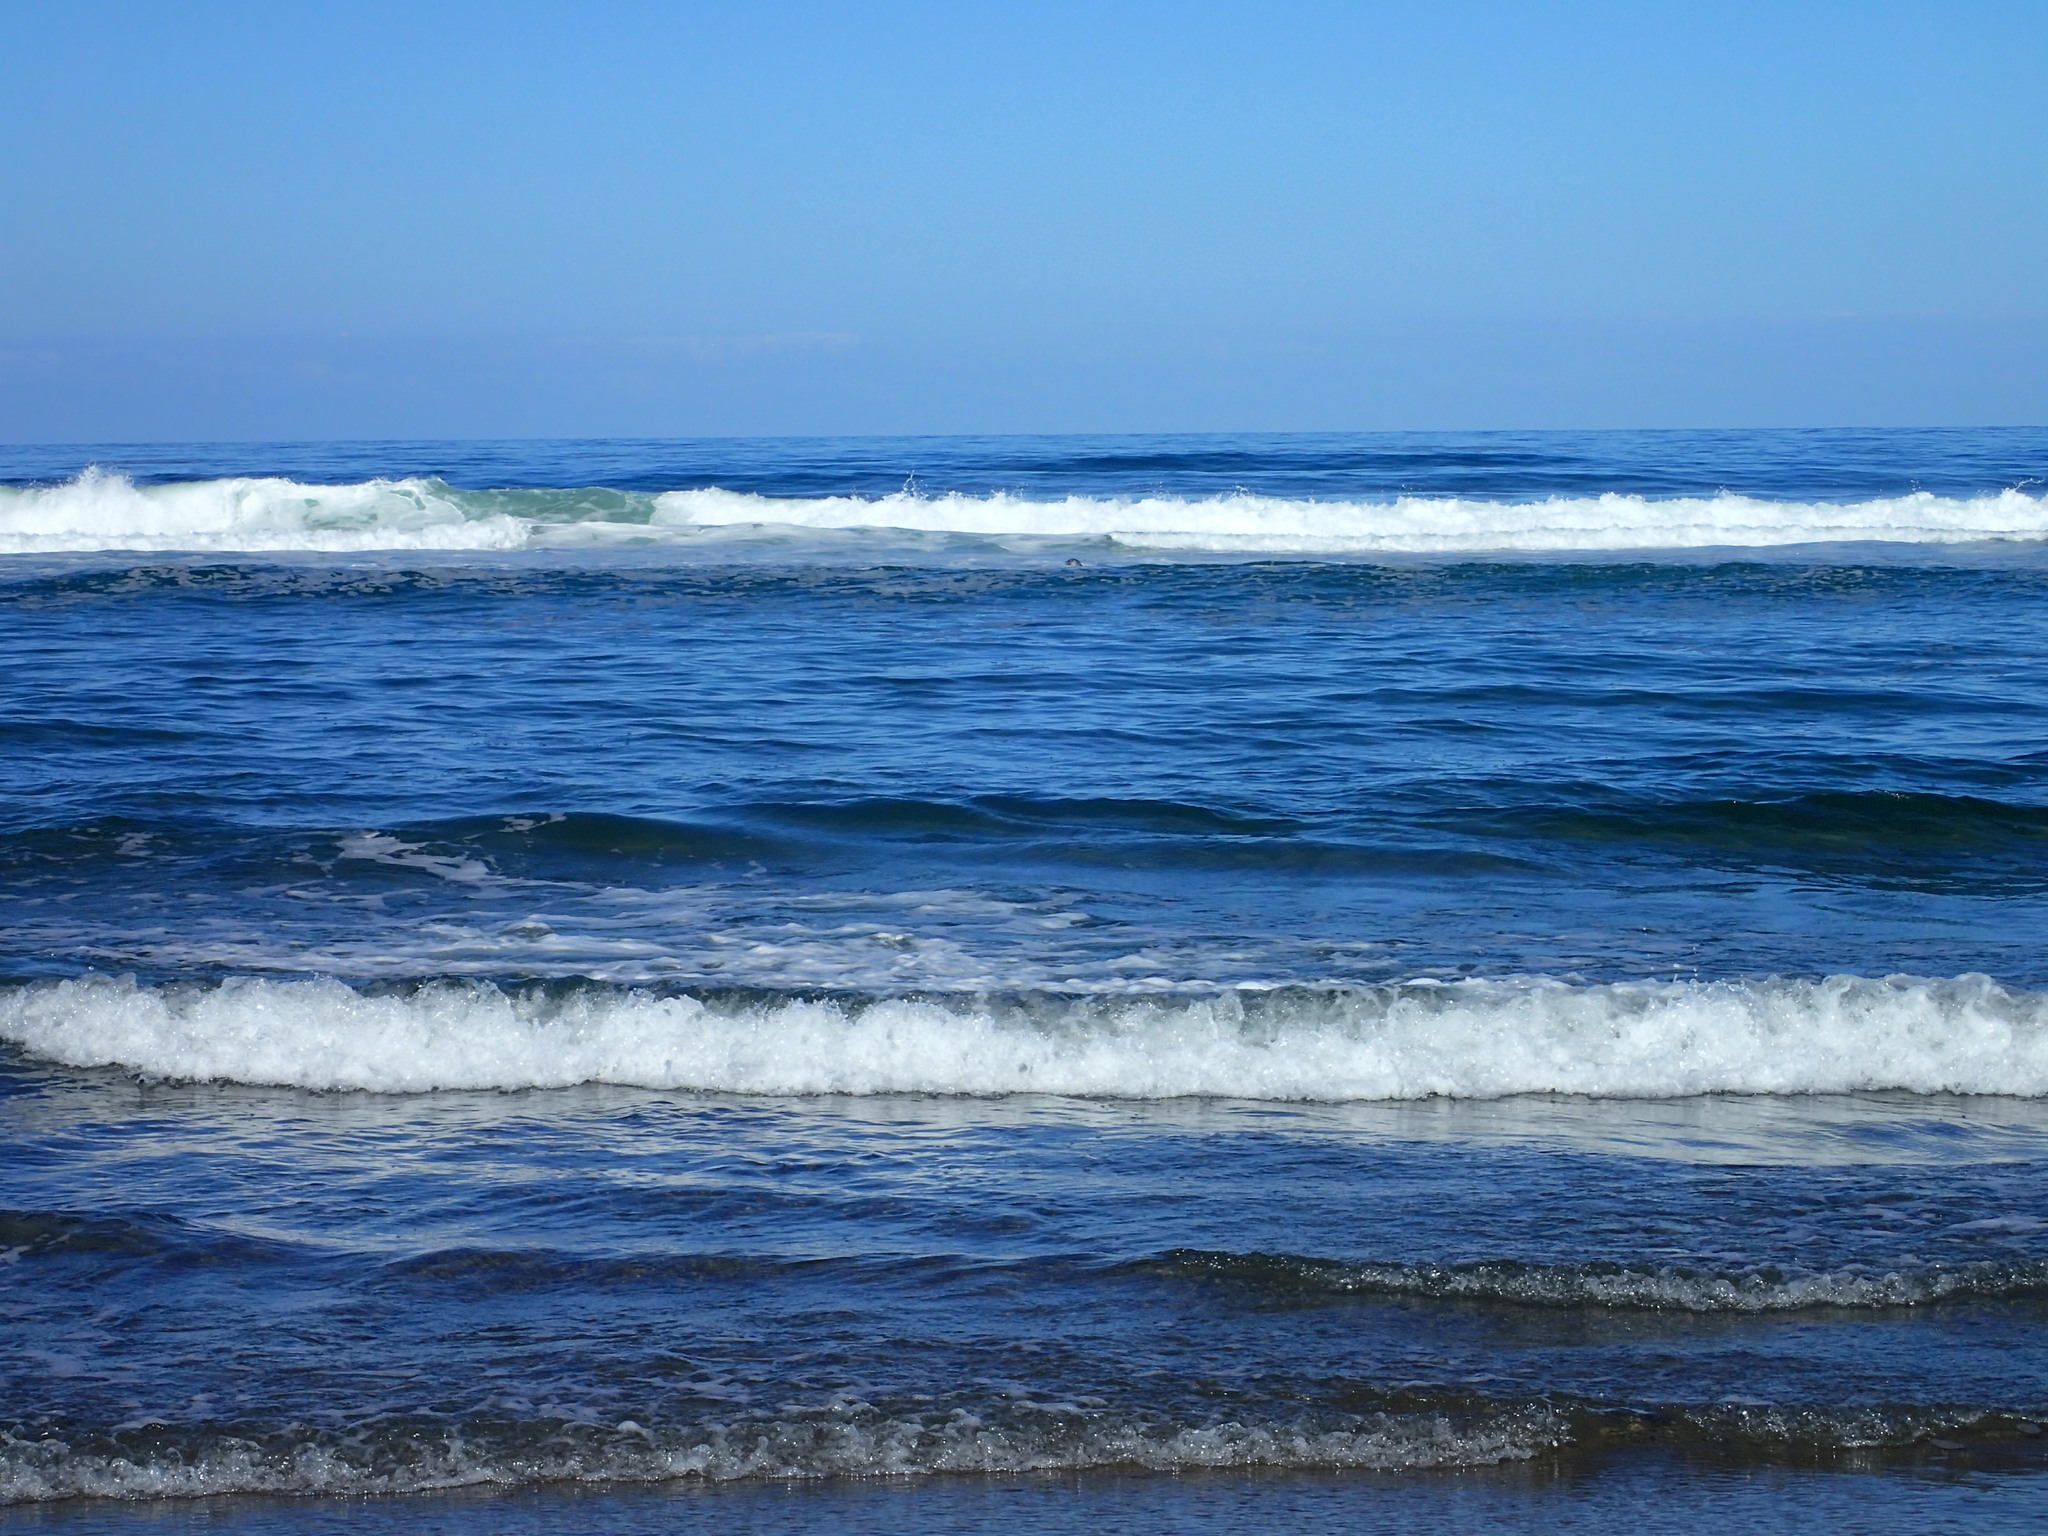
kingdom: Animalia
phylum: Chordata
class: Mammalia
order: Carnivora
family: Phocidae
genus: Phoca
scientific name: Phoca vitulina
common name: Harbor seal
